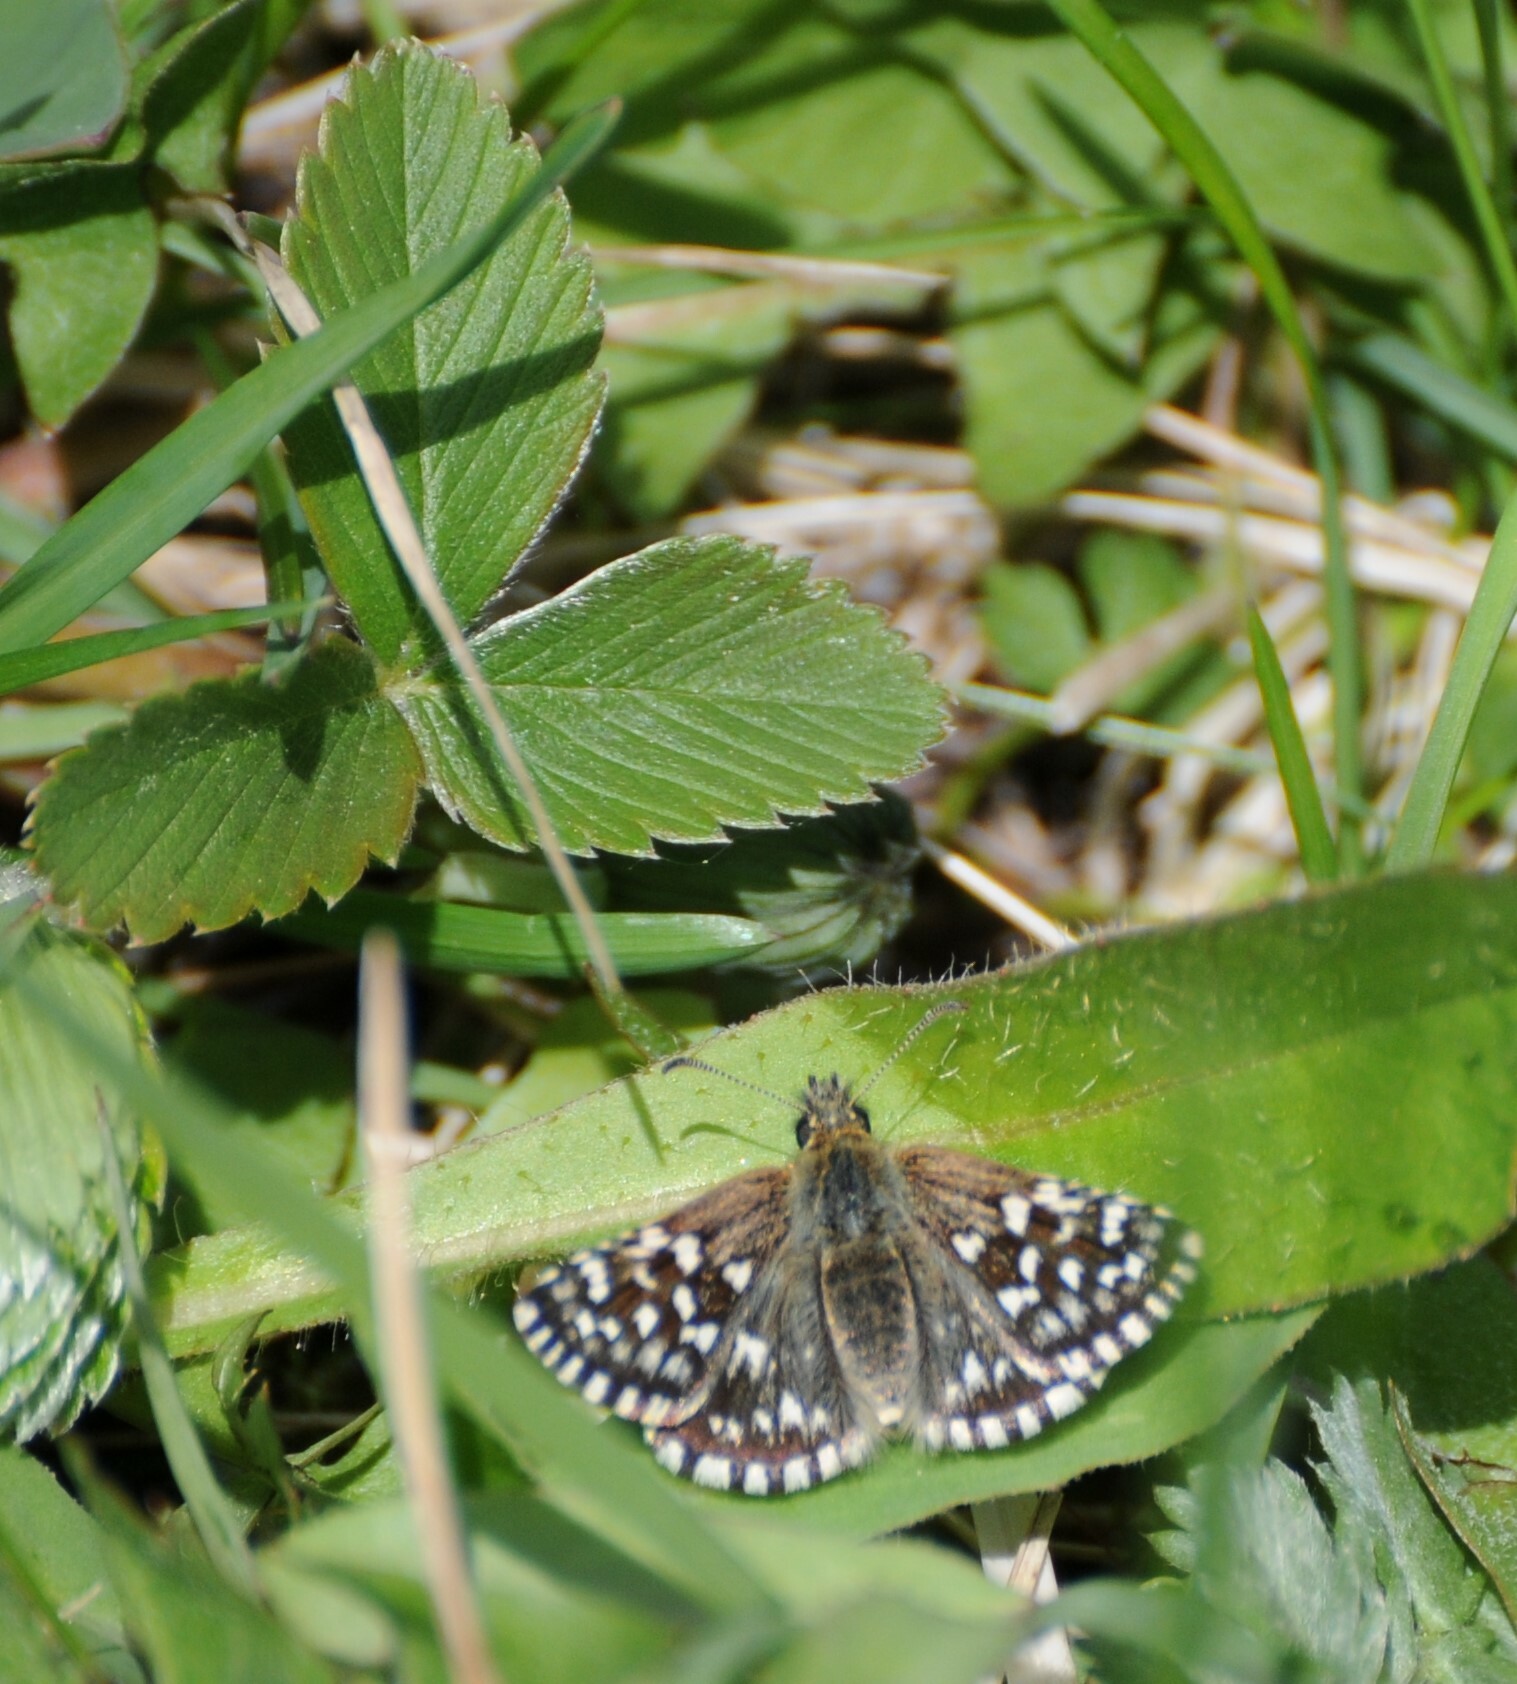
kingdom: Animalia
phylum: Arthropoda
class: Insecta
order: Lepidoptera
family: Hesperiidae
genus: Pyrgus
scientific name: Pyrgus malvae
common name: Grizzled skipper
